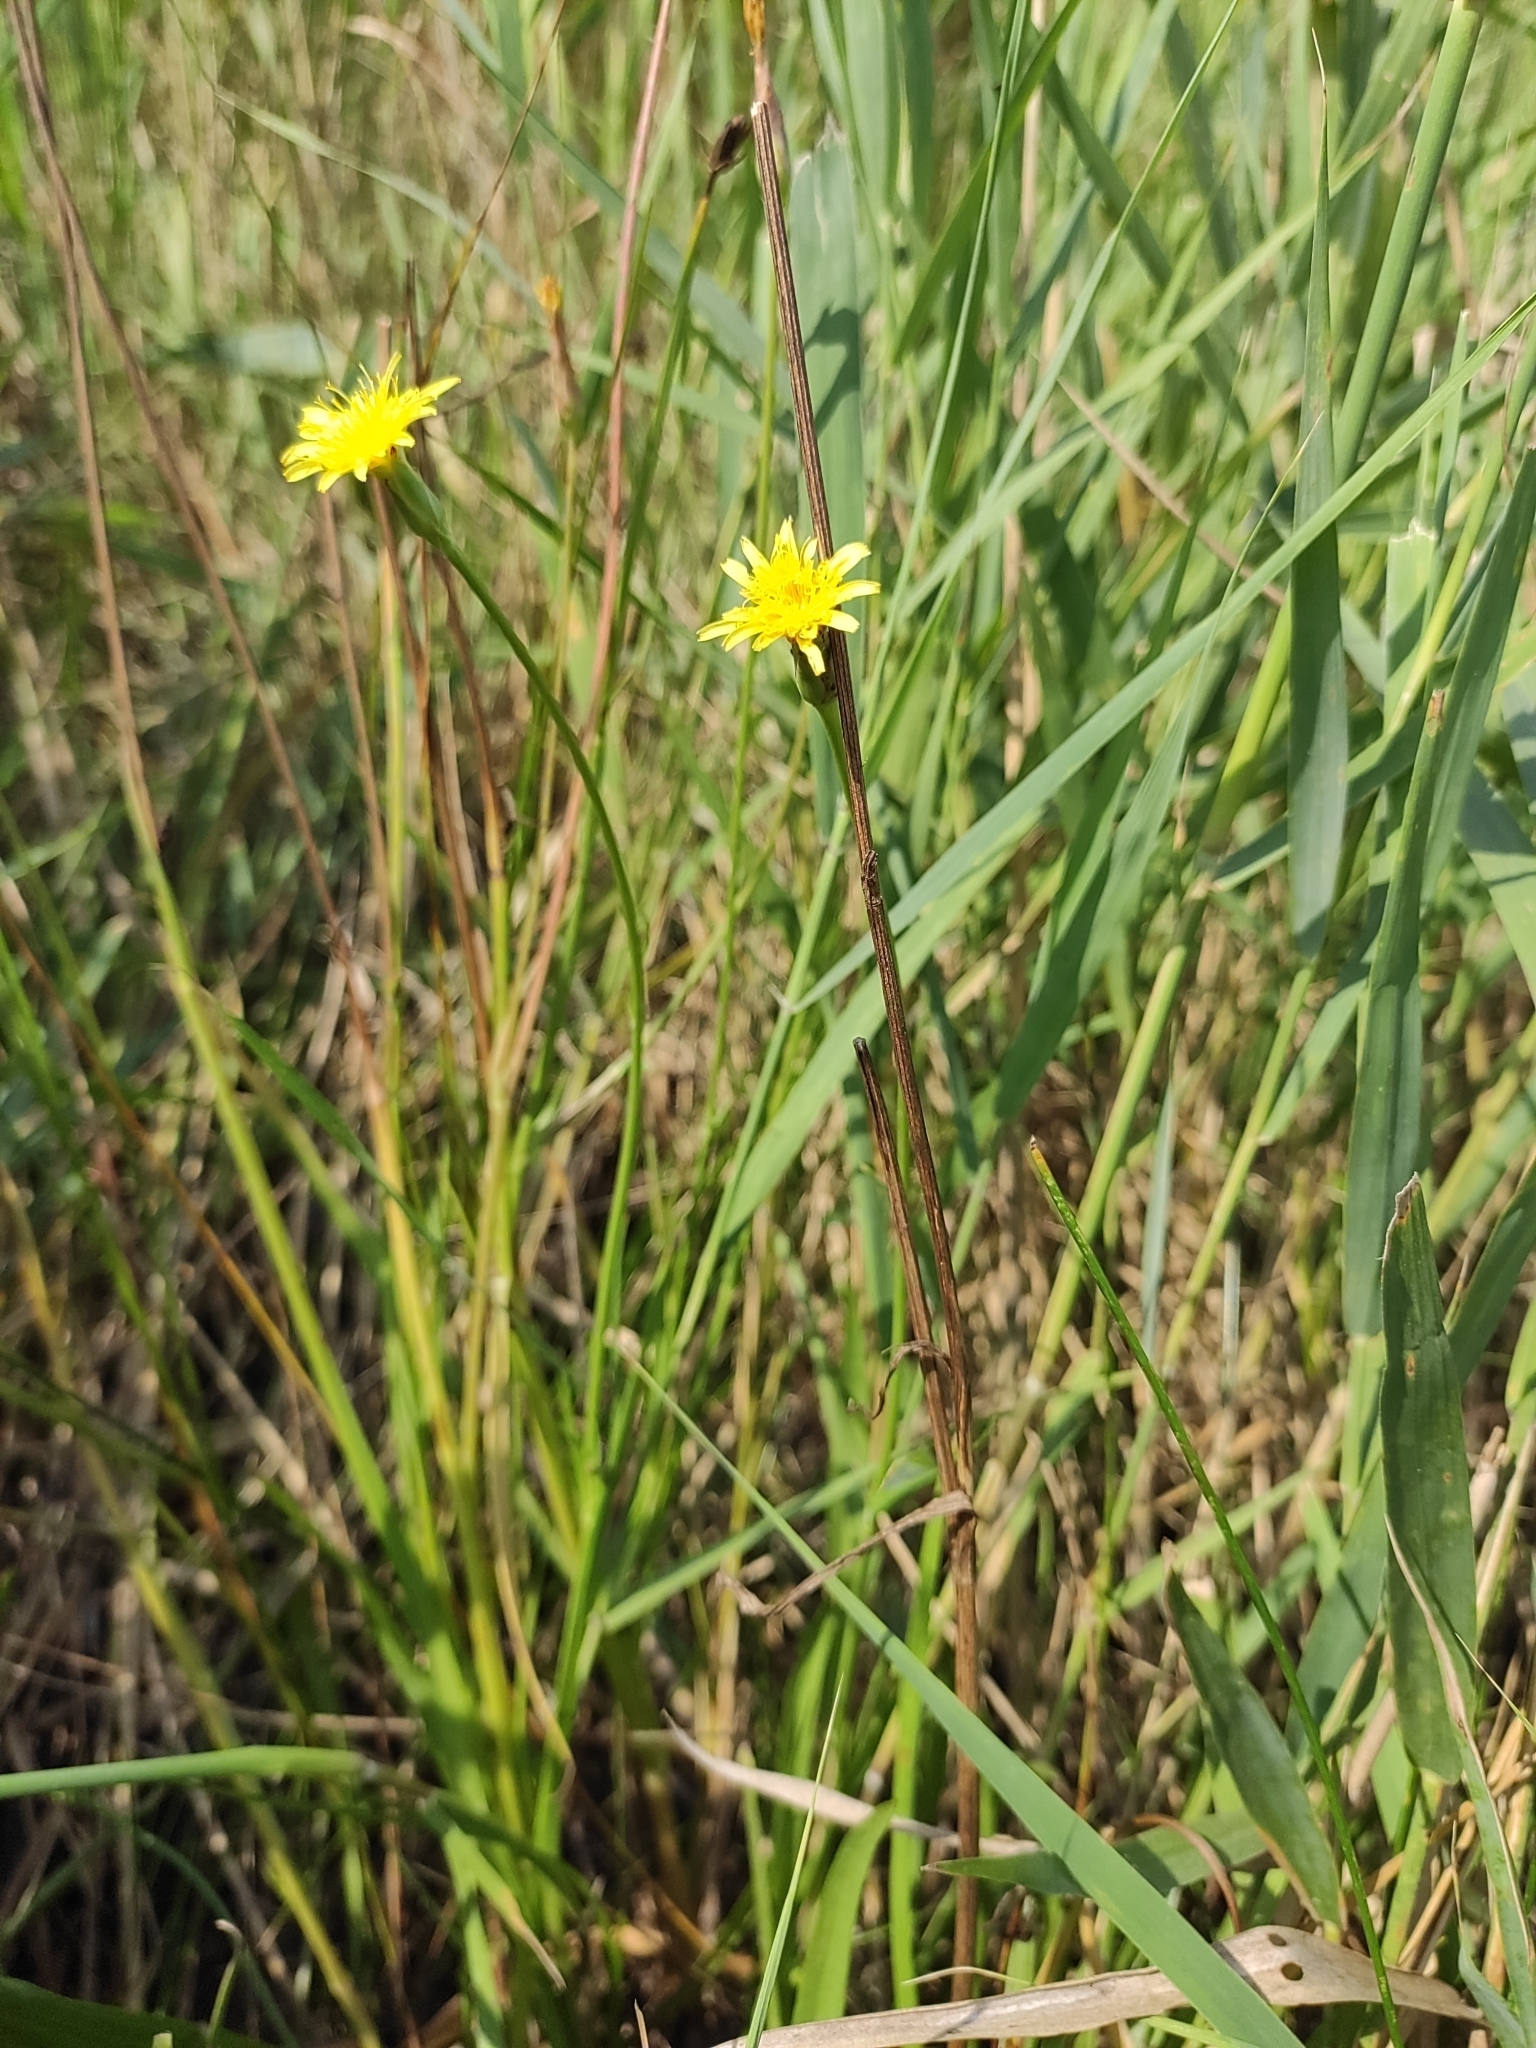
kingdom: Plantae
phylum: Tracheophyta
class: Magnoliopsida
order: Asterales
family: Asteraceae
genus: Scorzonera
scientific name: Scorzonera parviflora
